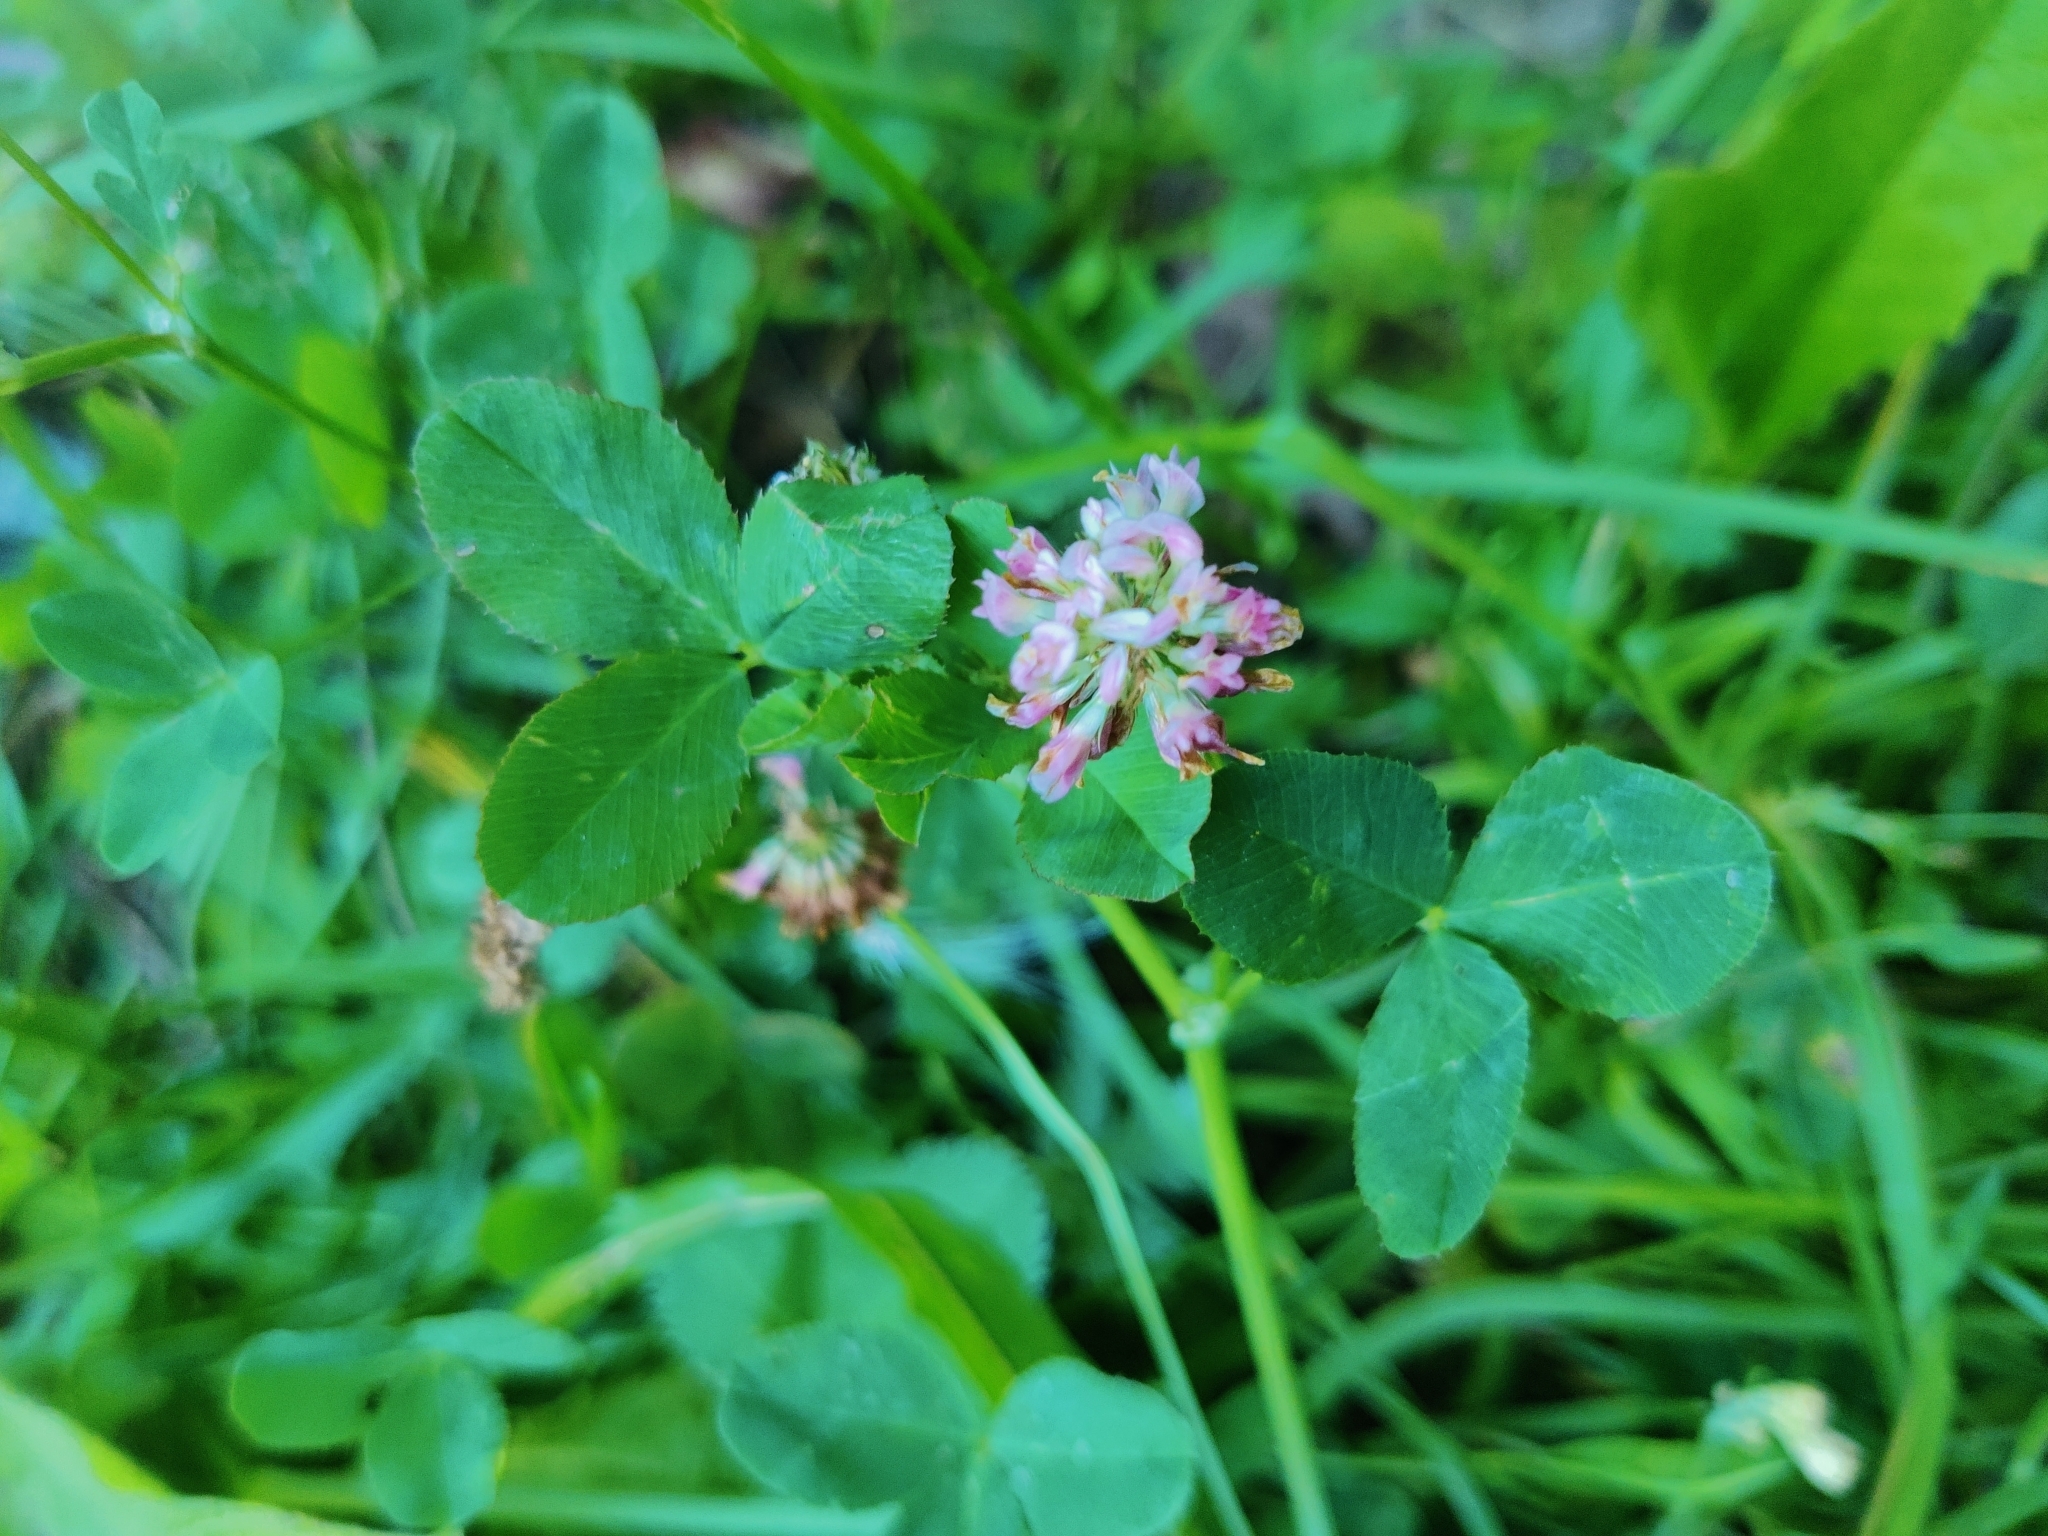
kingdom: Plantae
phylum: Tracheophyta
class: Magnoliopsida
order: Fabales
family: Fabaceae
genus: Trifolium
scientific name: Trifolium hybridum
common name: Alsike clover
